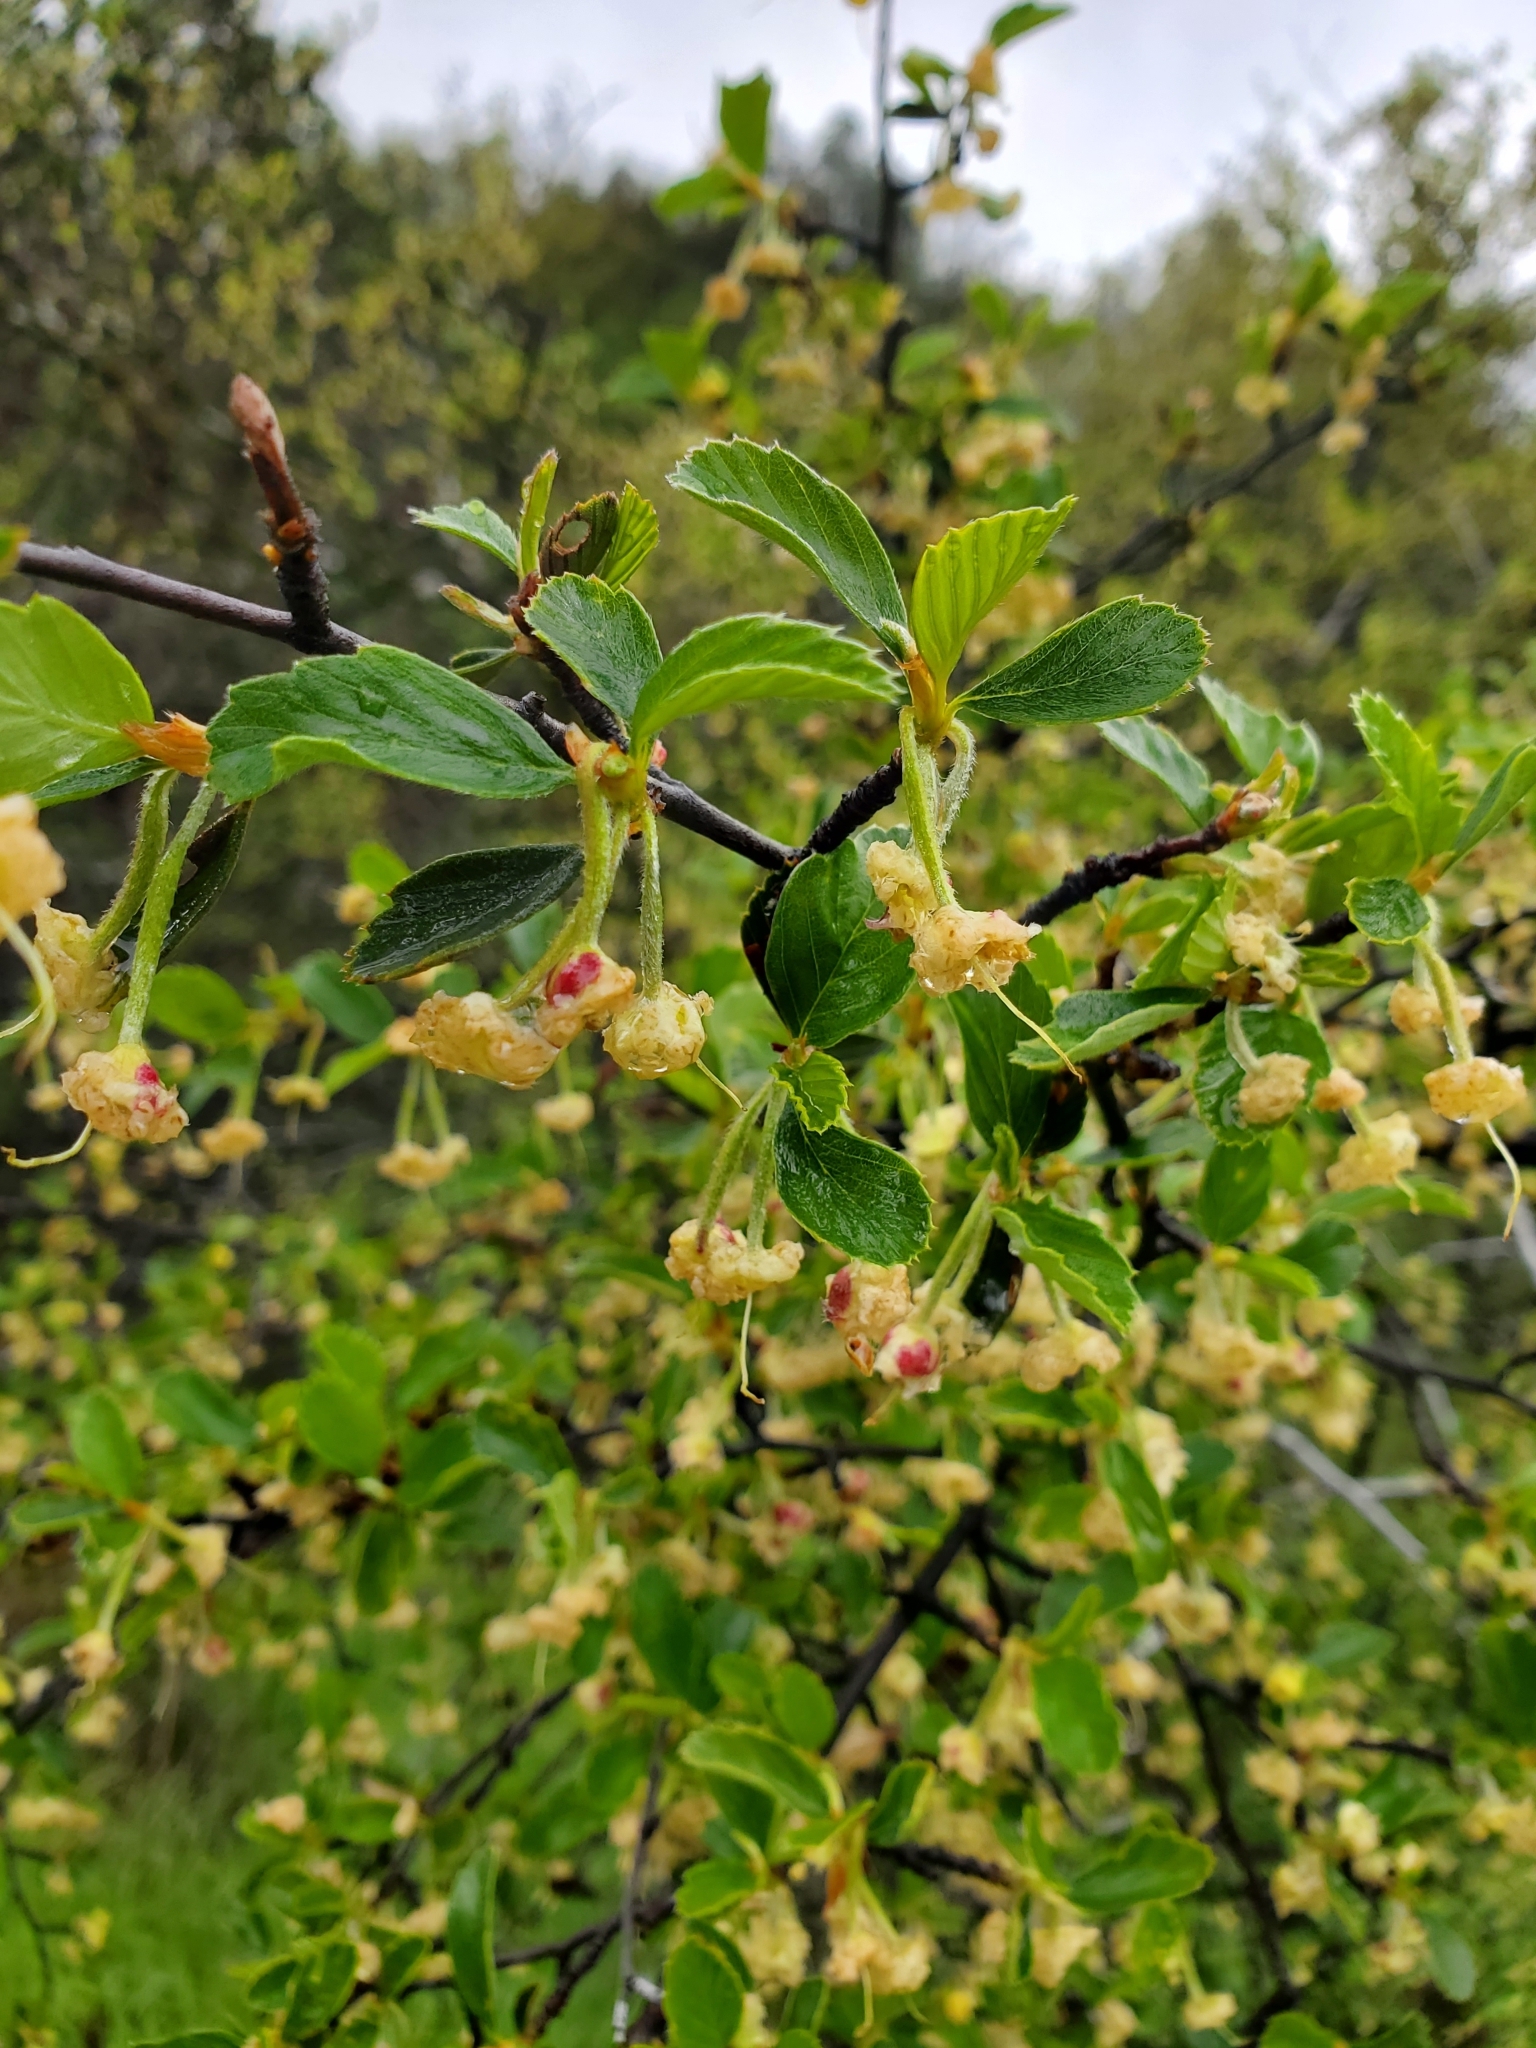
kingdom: Plantae
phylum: Tracheophyta
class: Magnoliopsida
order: Rosales
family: Rosaceae
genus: Cercocarpus
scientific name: Cercocarpus betuloides
